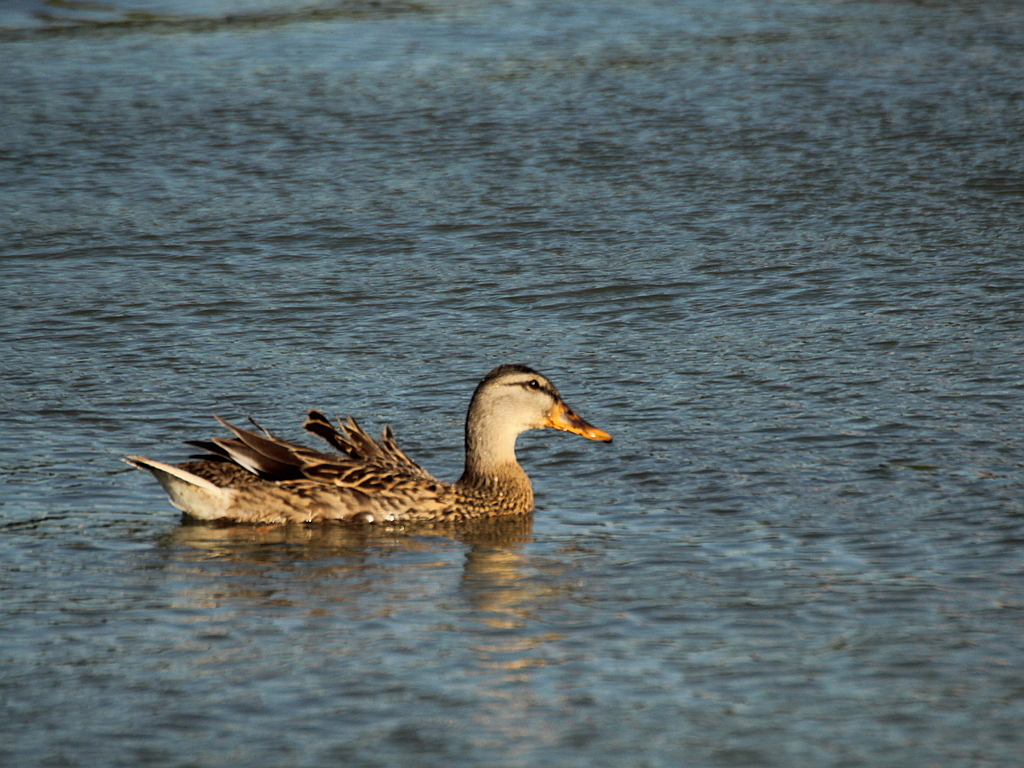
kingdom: Animalia
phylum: Chordata
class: Aves
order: Anseriformes
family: Anatidae
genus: Anas
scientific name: Anas platyrhynchos
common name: Mallard
